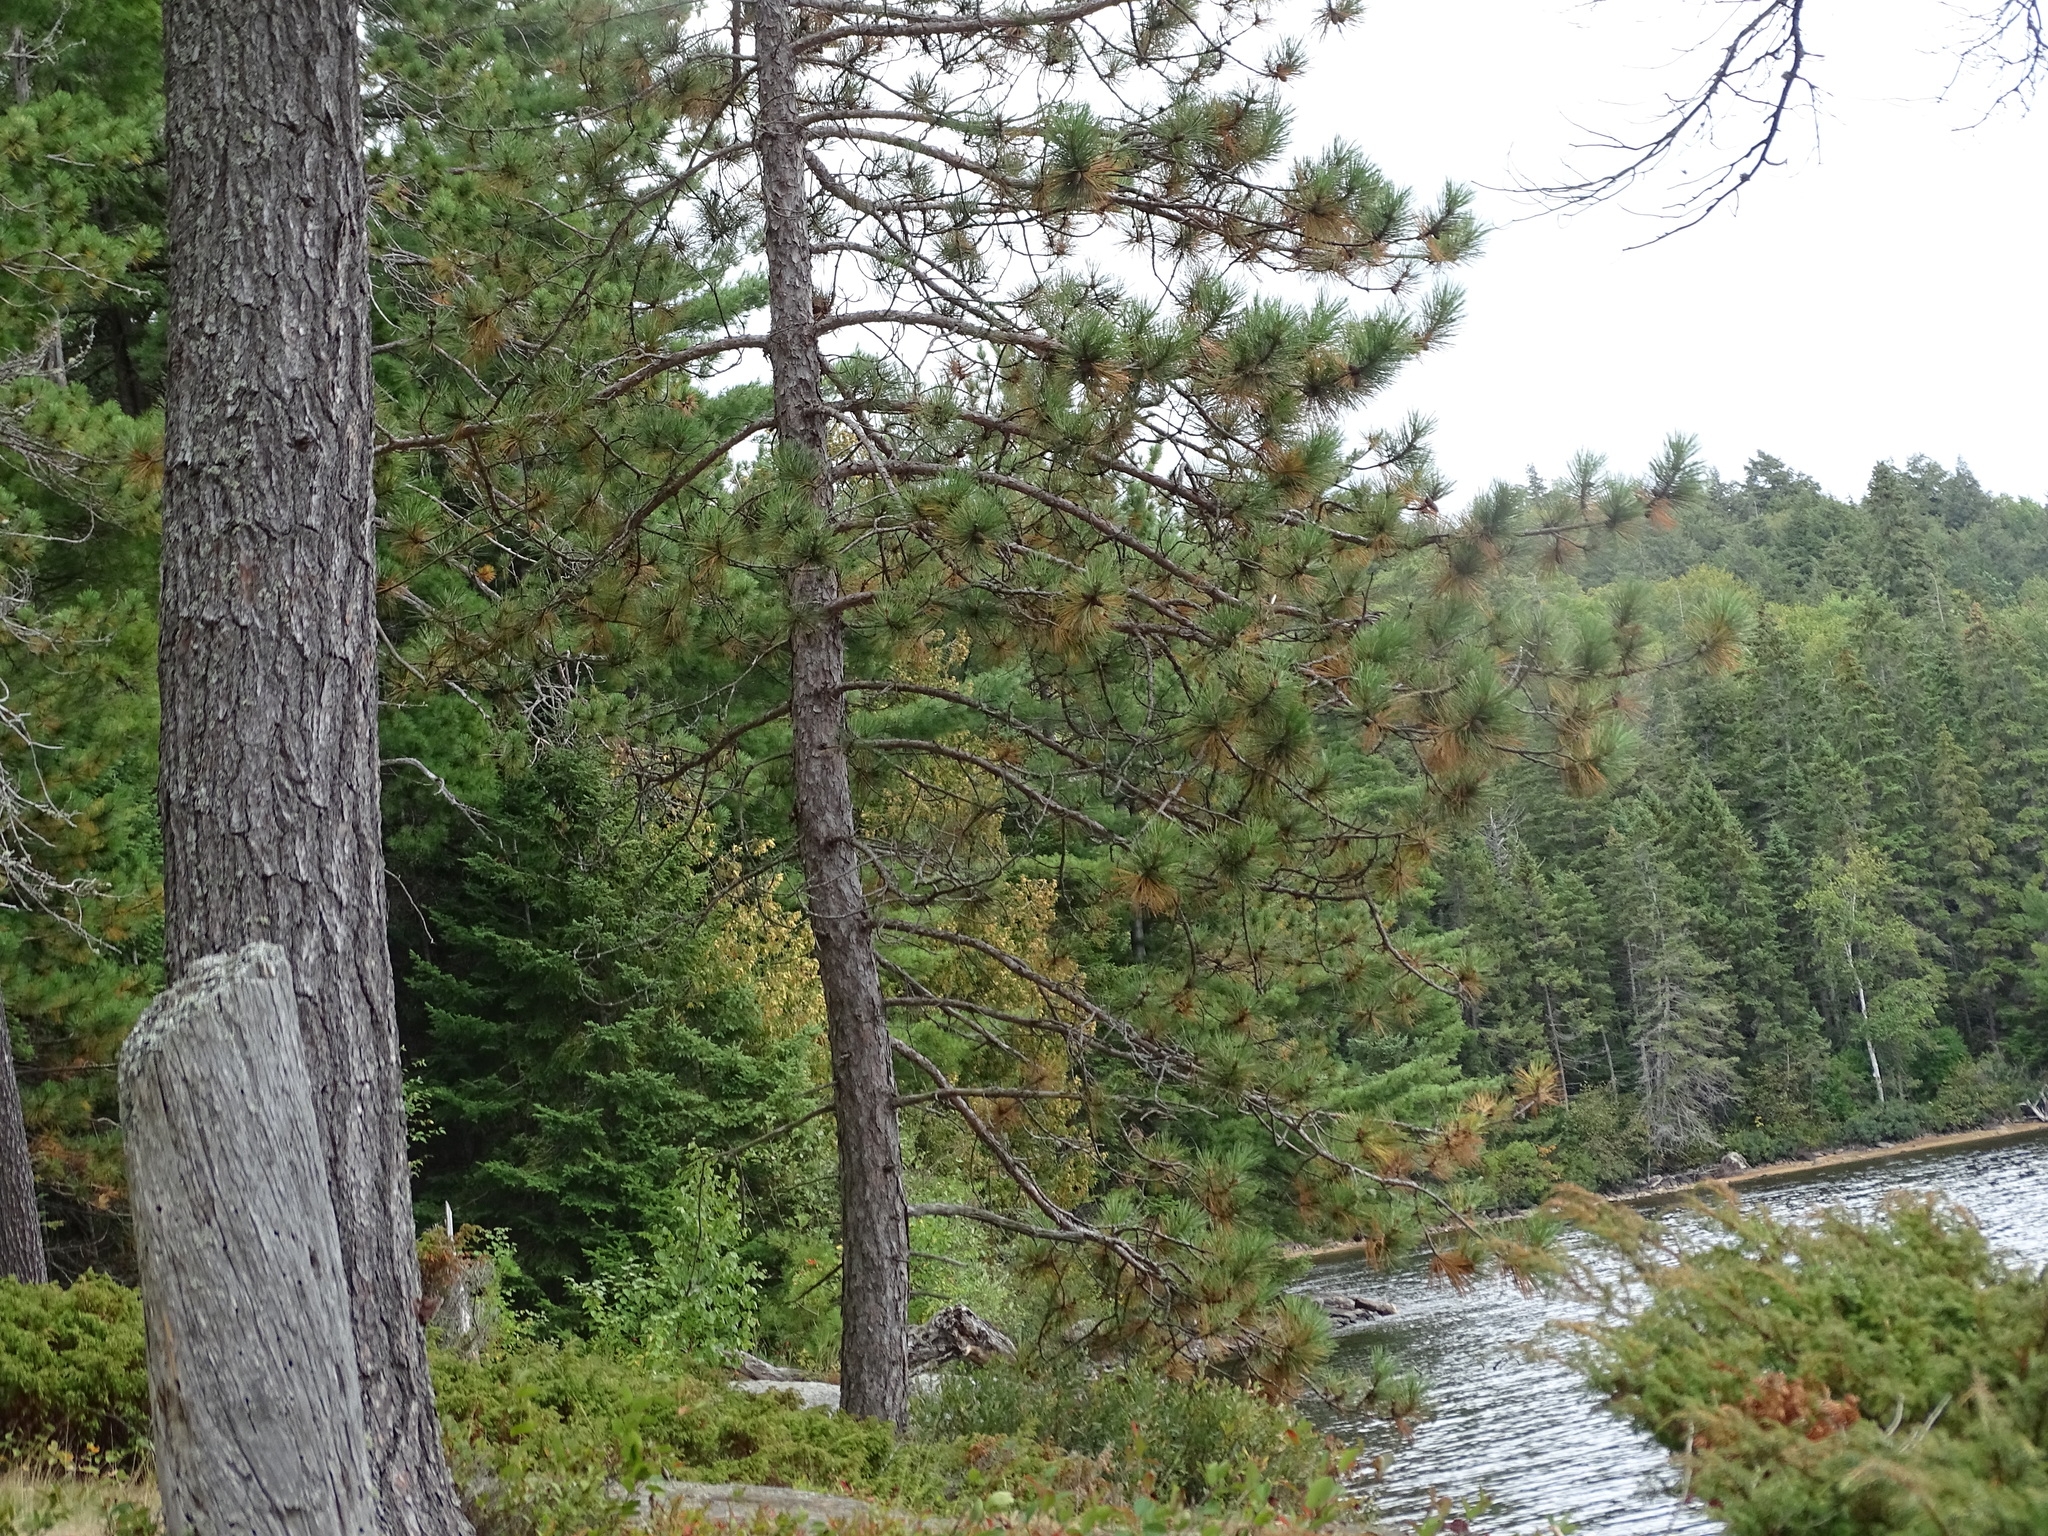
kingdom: Plantae
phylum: Tracheophyta
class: Pinopsida
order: Pinales
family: Pinaceae
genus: Pinus
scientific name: Pinus resinosa
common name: Norway pine
